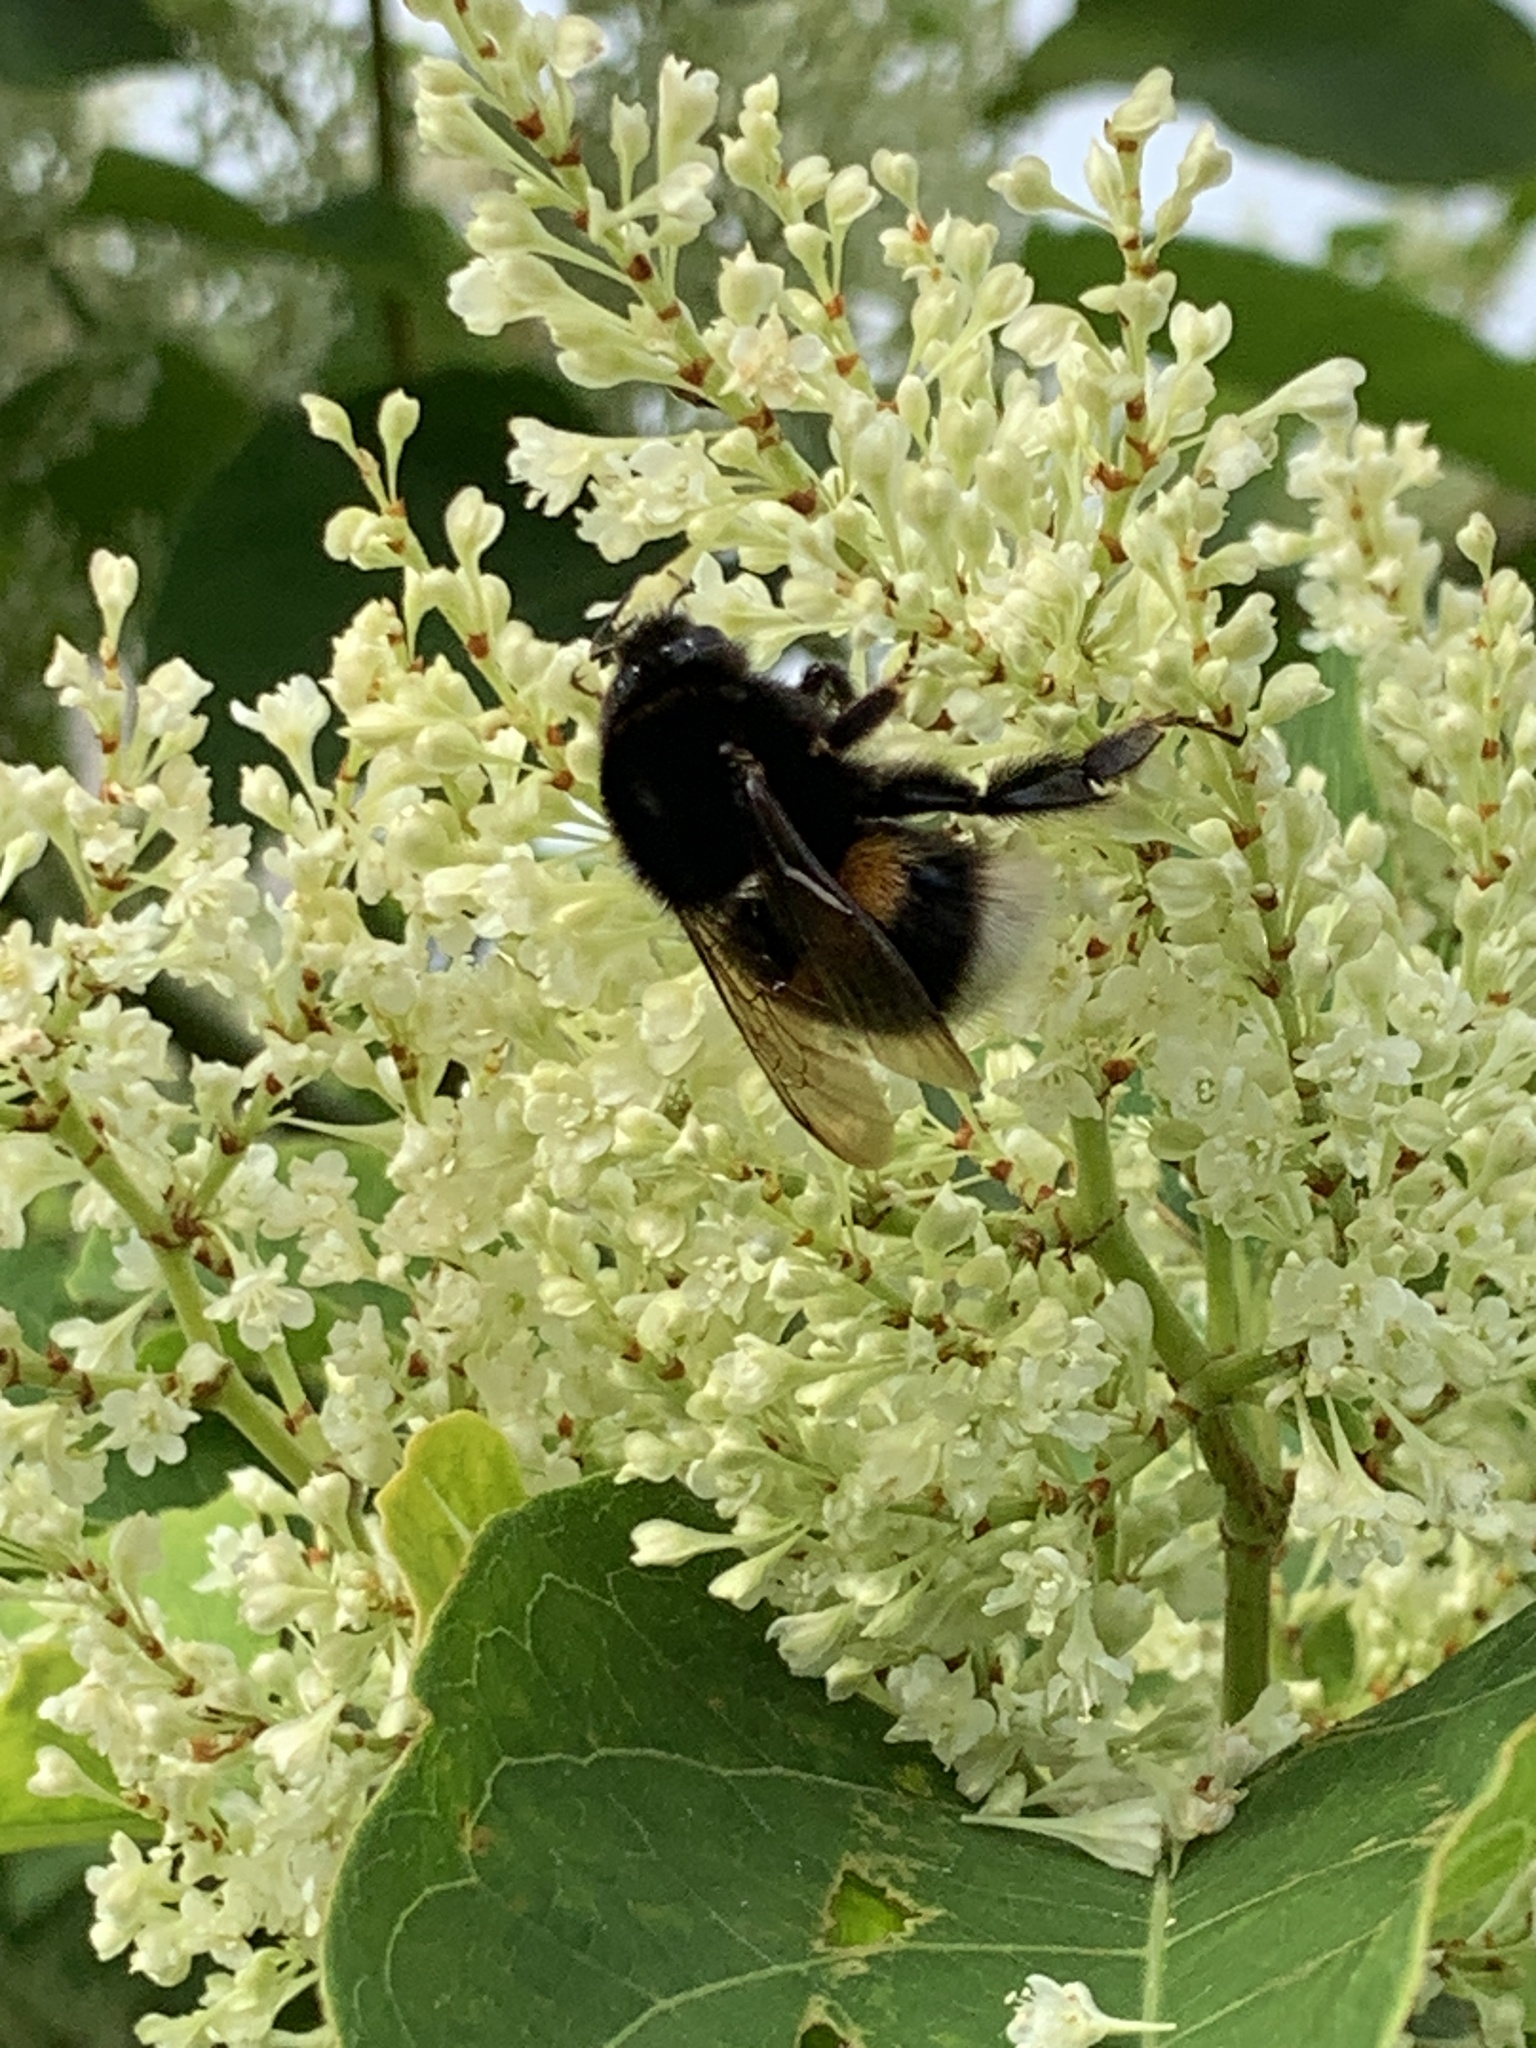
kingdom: Animalia
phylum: Arthropoda
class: Insecta
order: Hymenoptera
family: Apidae
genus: Bombus
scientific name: Bombus terrestris
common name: Buff-tailed bumblebee
